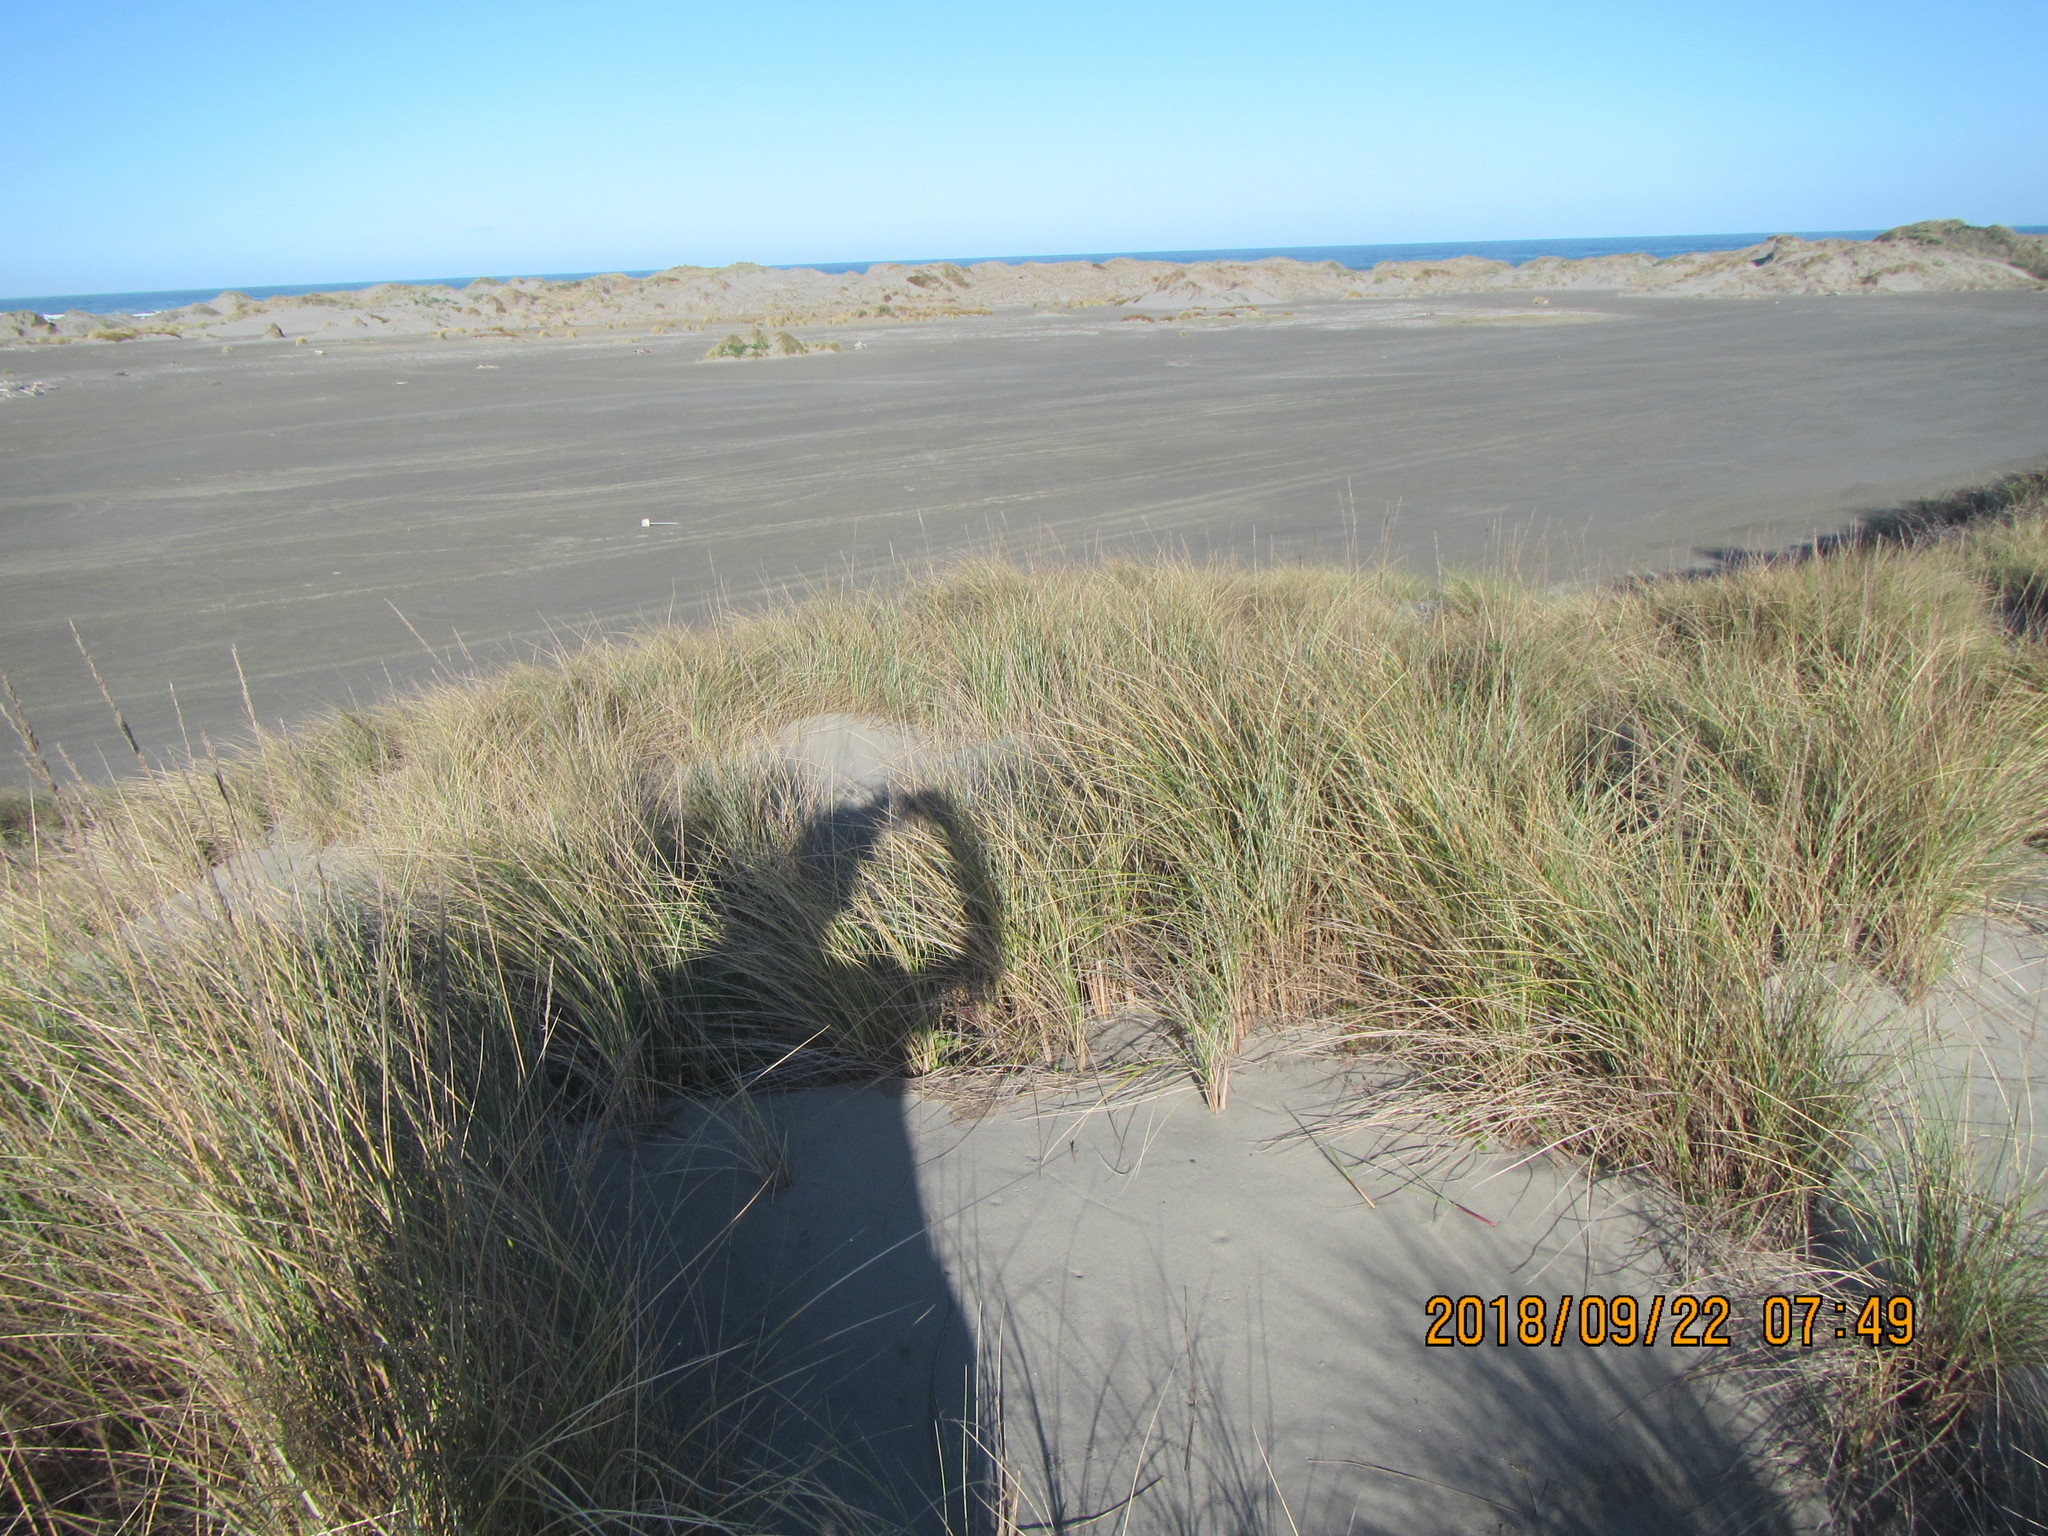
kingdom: Plantae
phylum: Tracheophyta
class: Liliopsida
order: Poales
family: Poaceae
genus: Calamagrostis
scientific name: Calamagrostis arenaria
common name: European beachgrass
